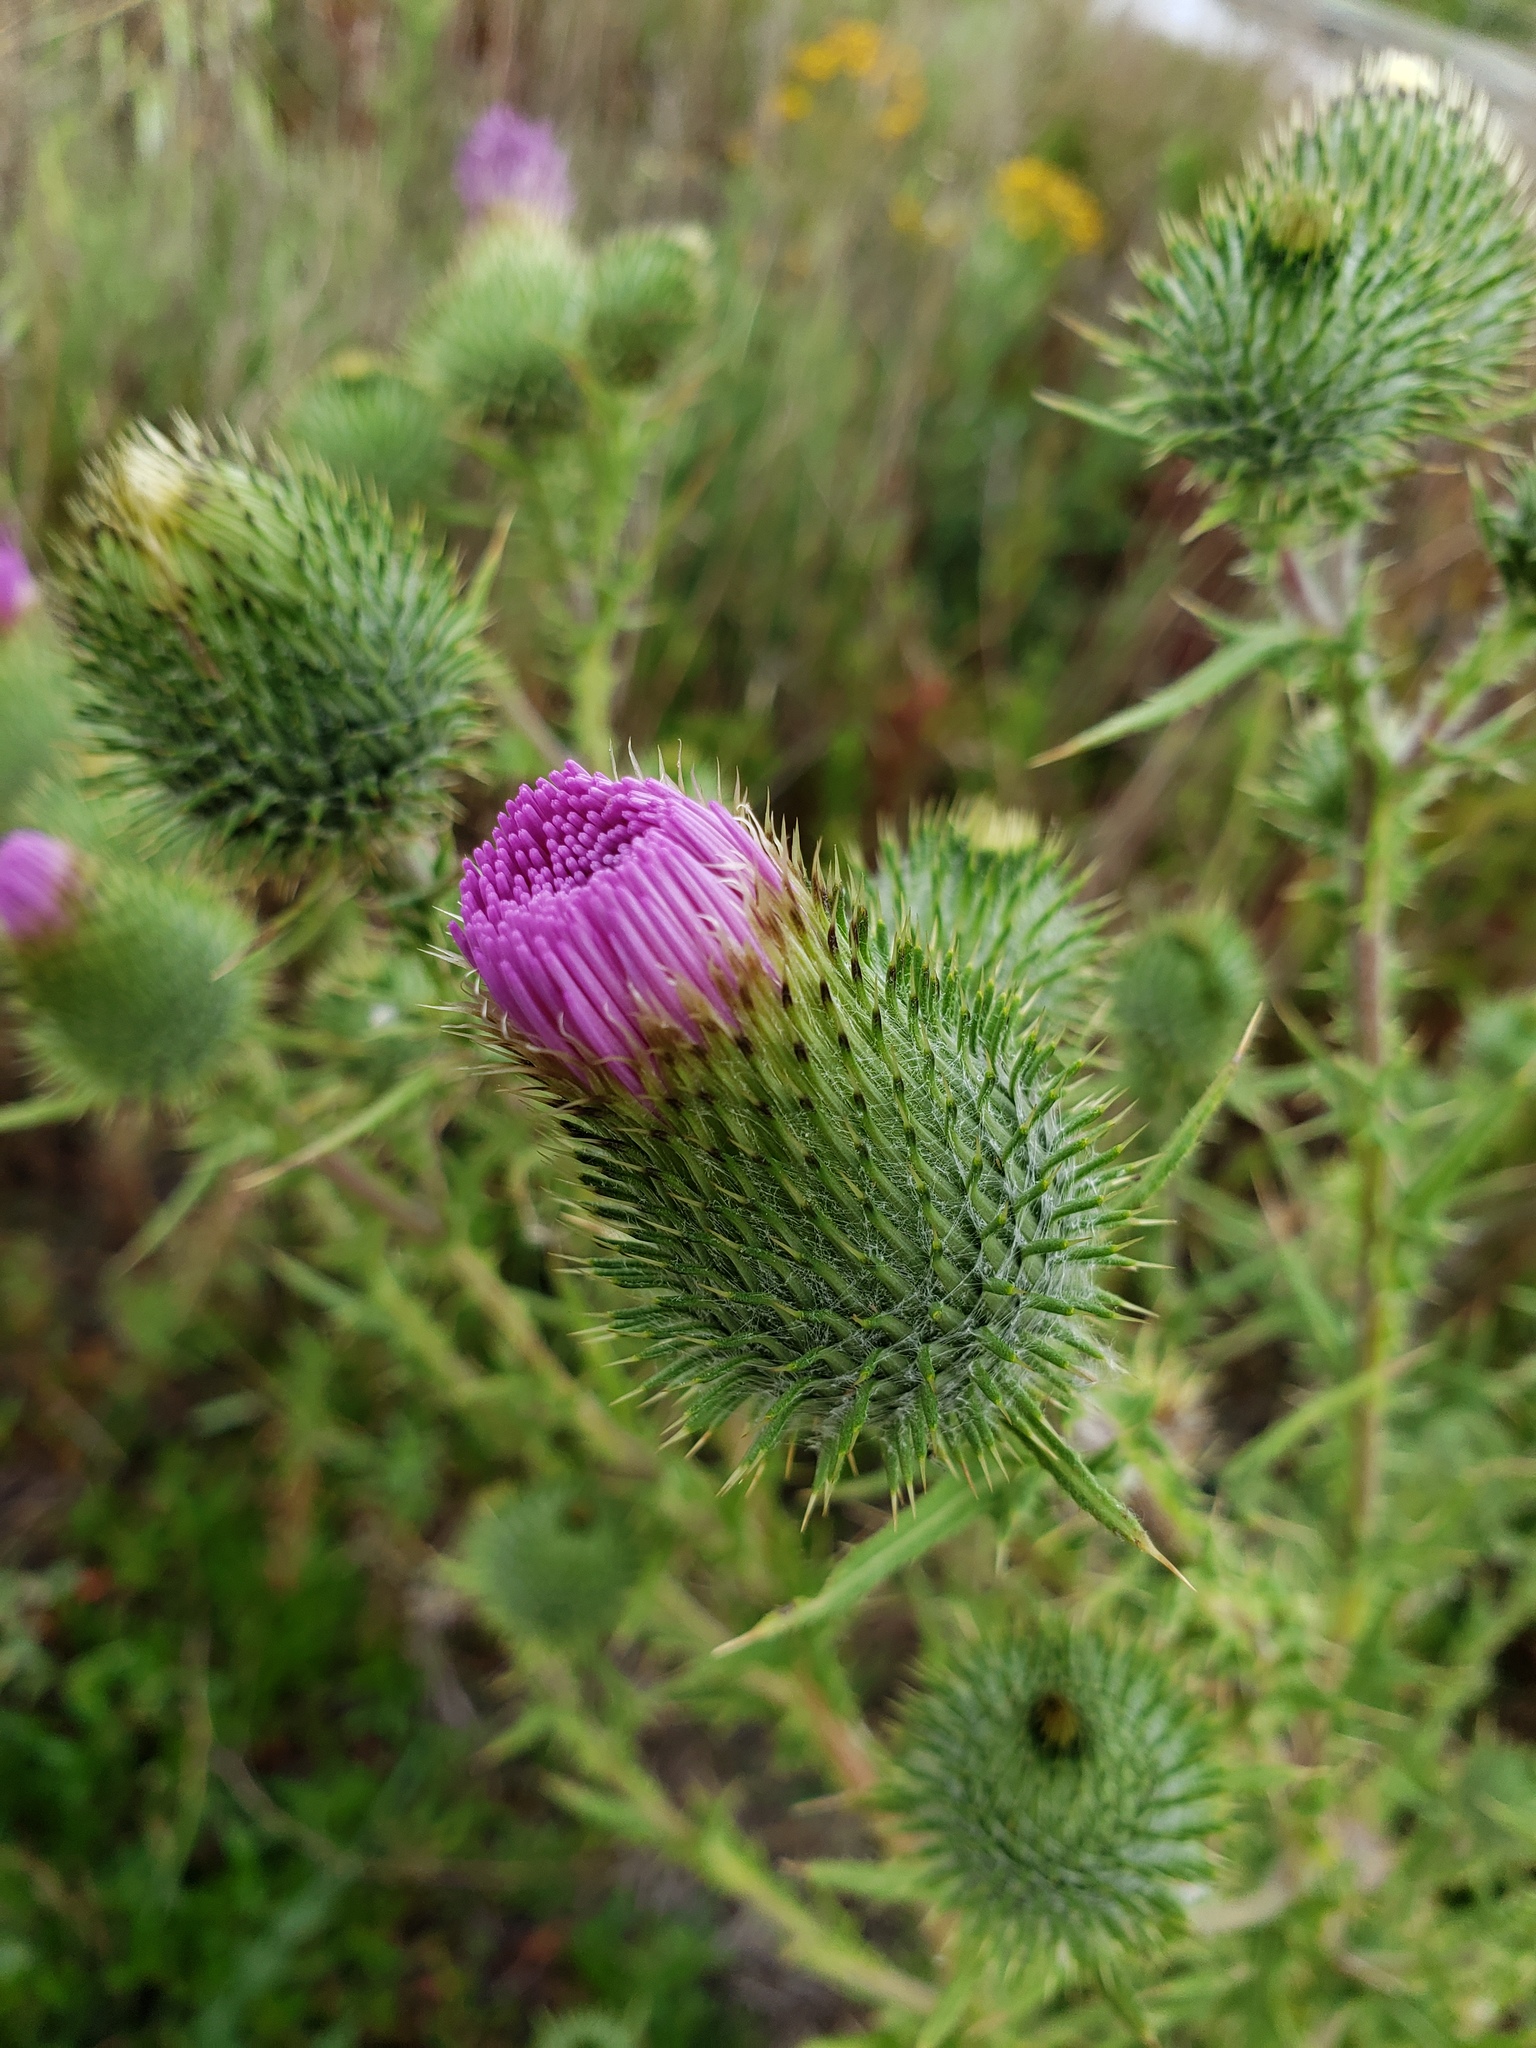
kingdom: Plantae
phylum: Tracheophyta
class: Magnoliopsida
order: Asterales
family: Asteraceae
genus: Cirsium
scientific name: Cirsium vulgare
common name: Bull thistle
